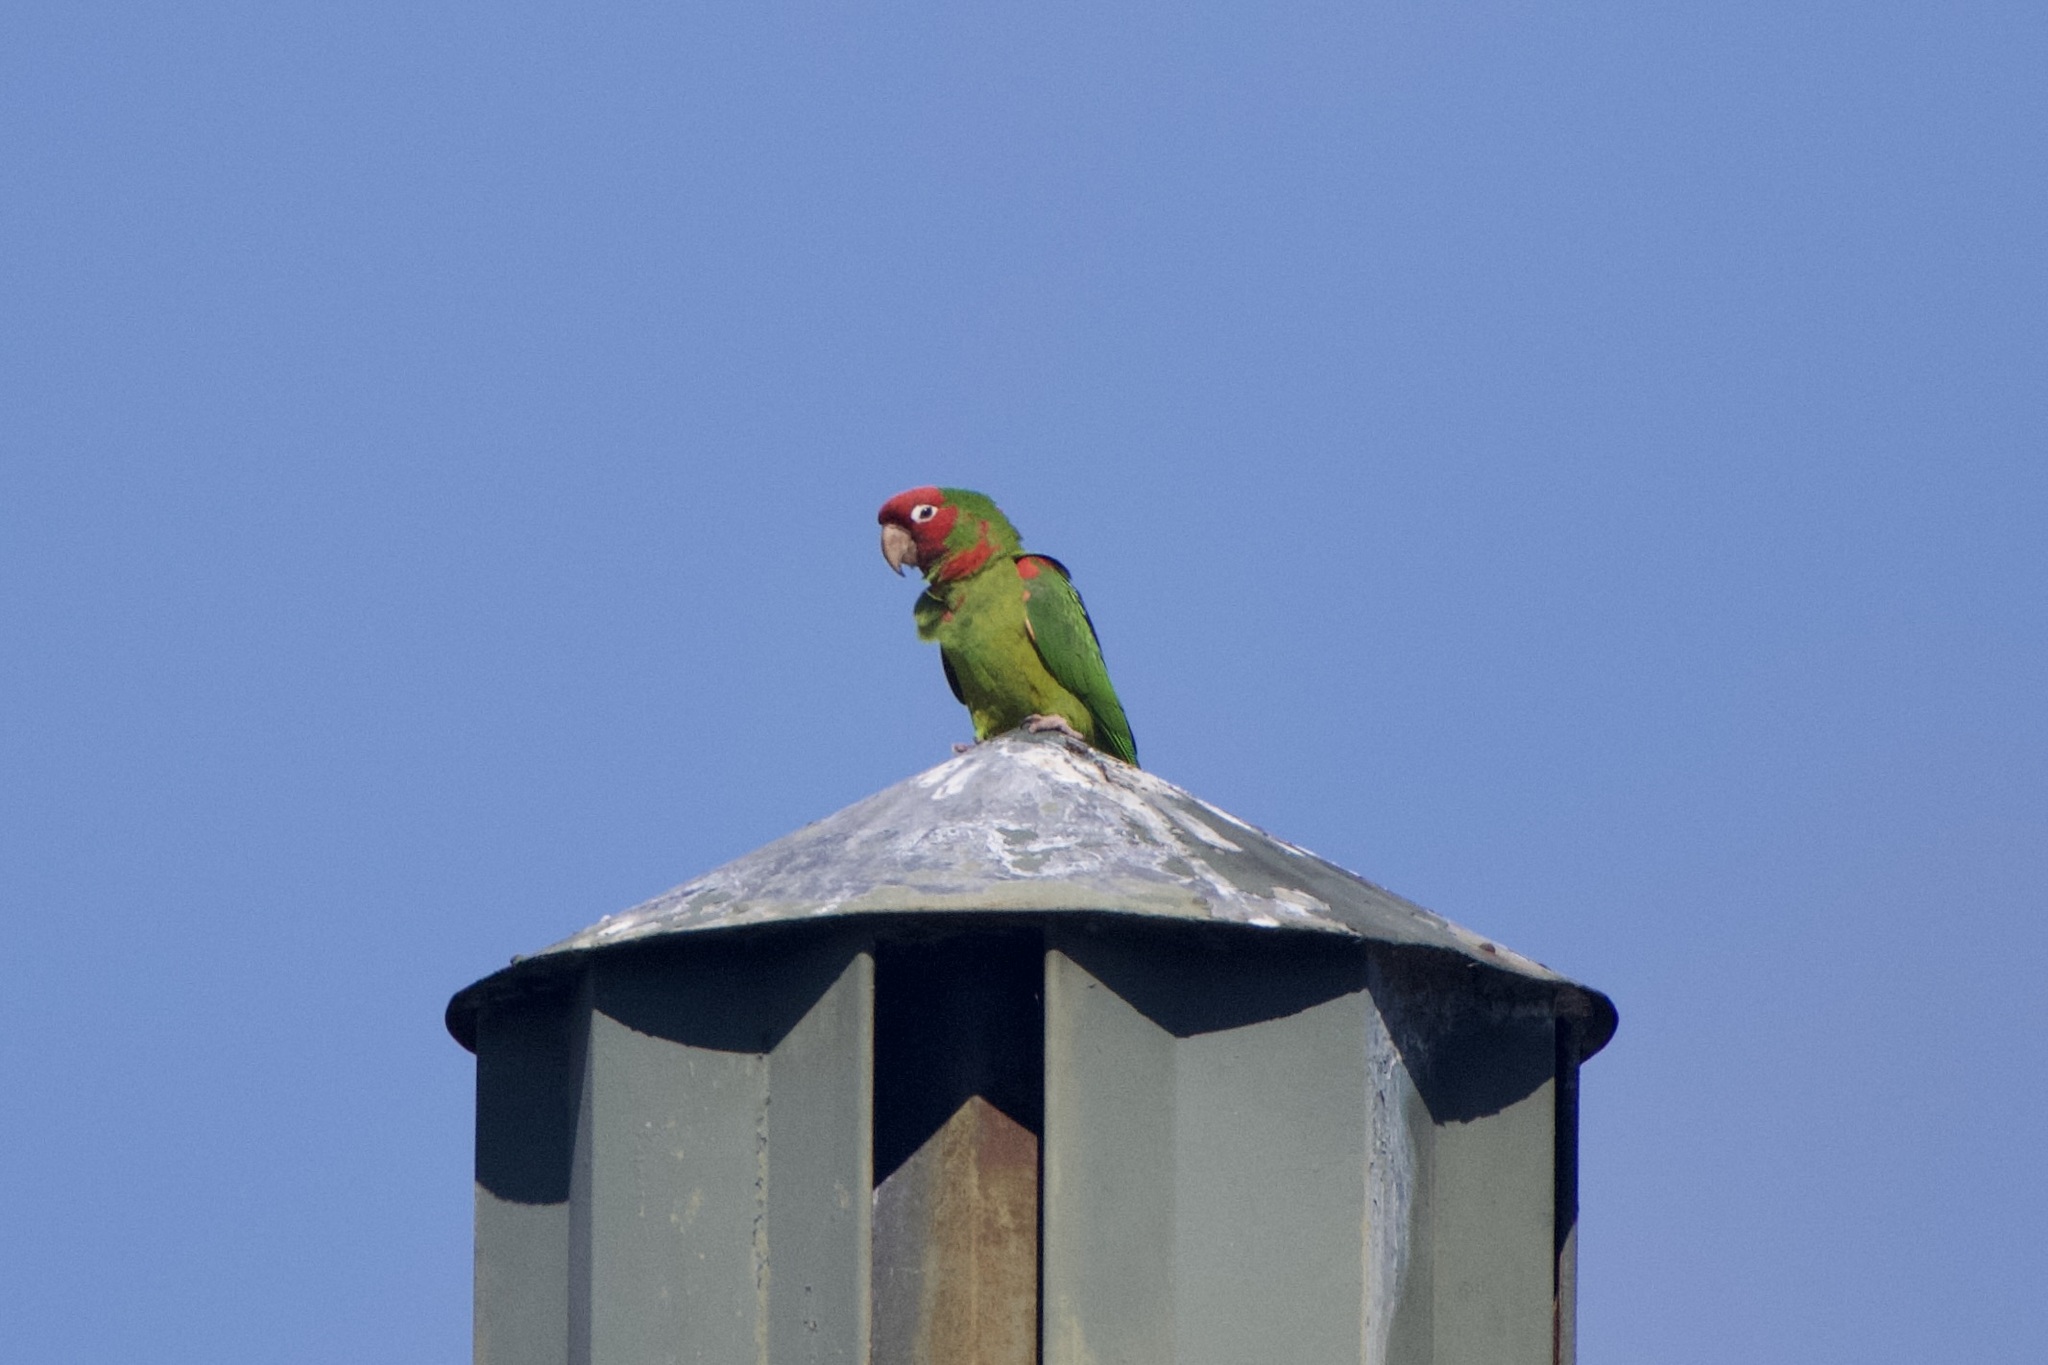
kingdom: Animalia
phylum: Chordata
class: Aves
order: Psittaciformes
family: Psittacidae
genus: Aratinga
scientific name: Aratinga erythrogenys
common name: Red-masked parakeet
